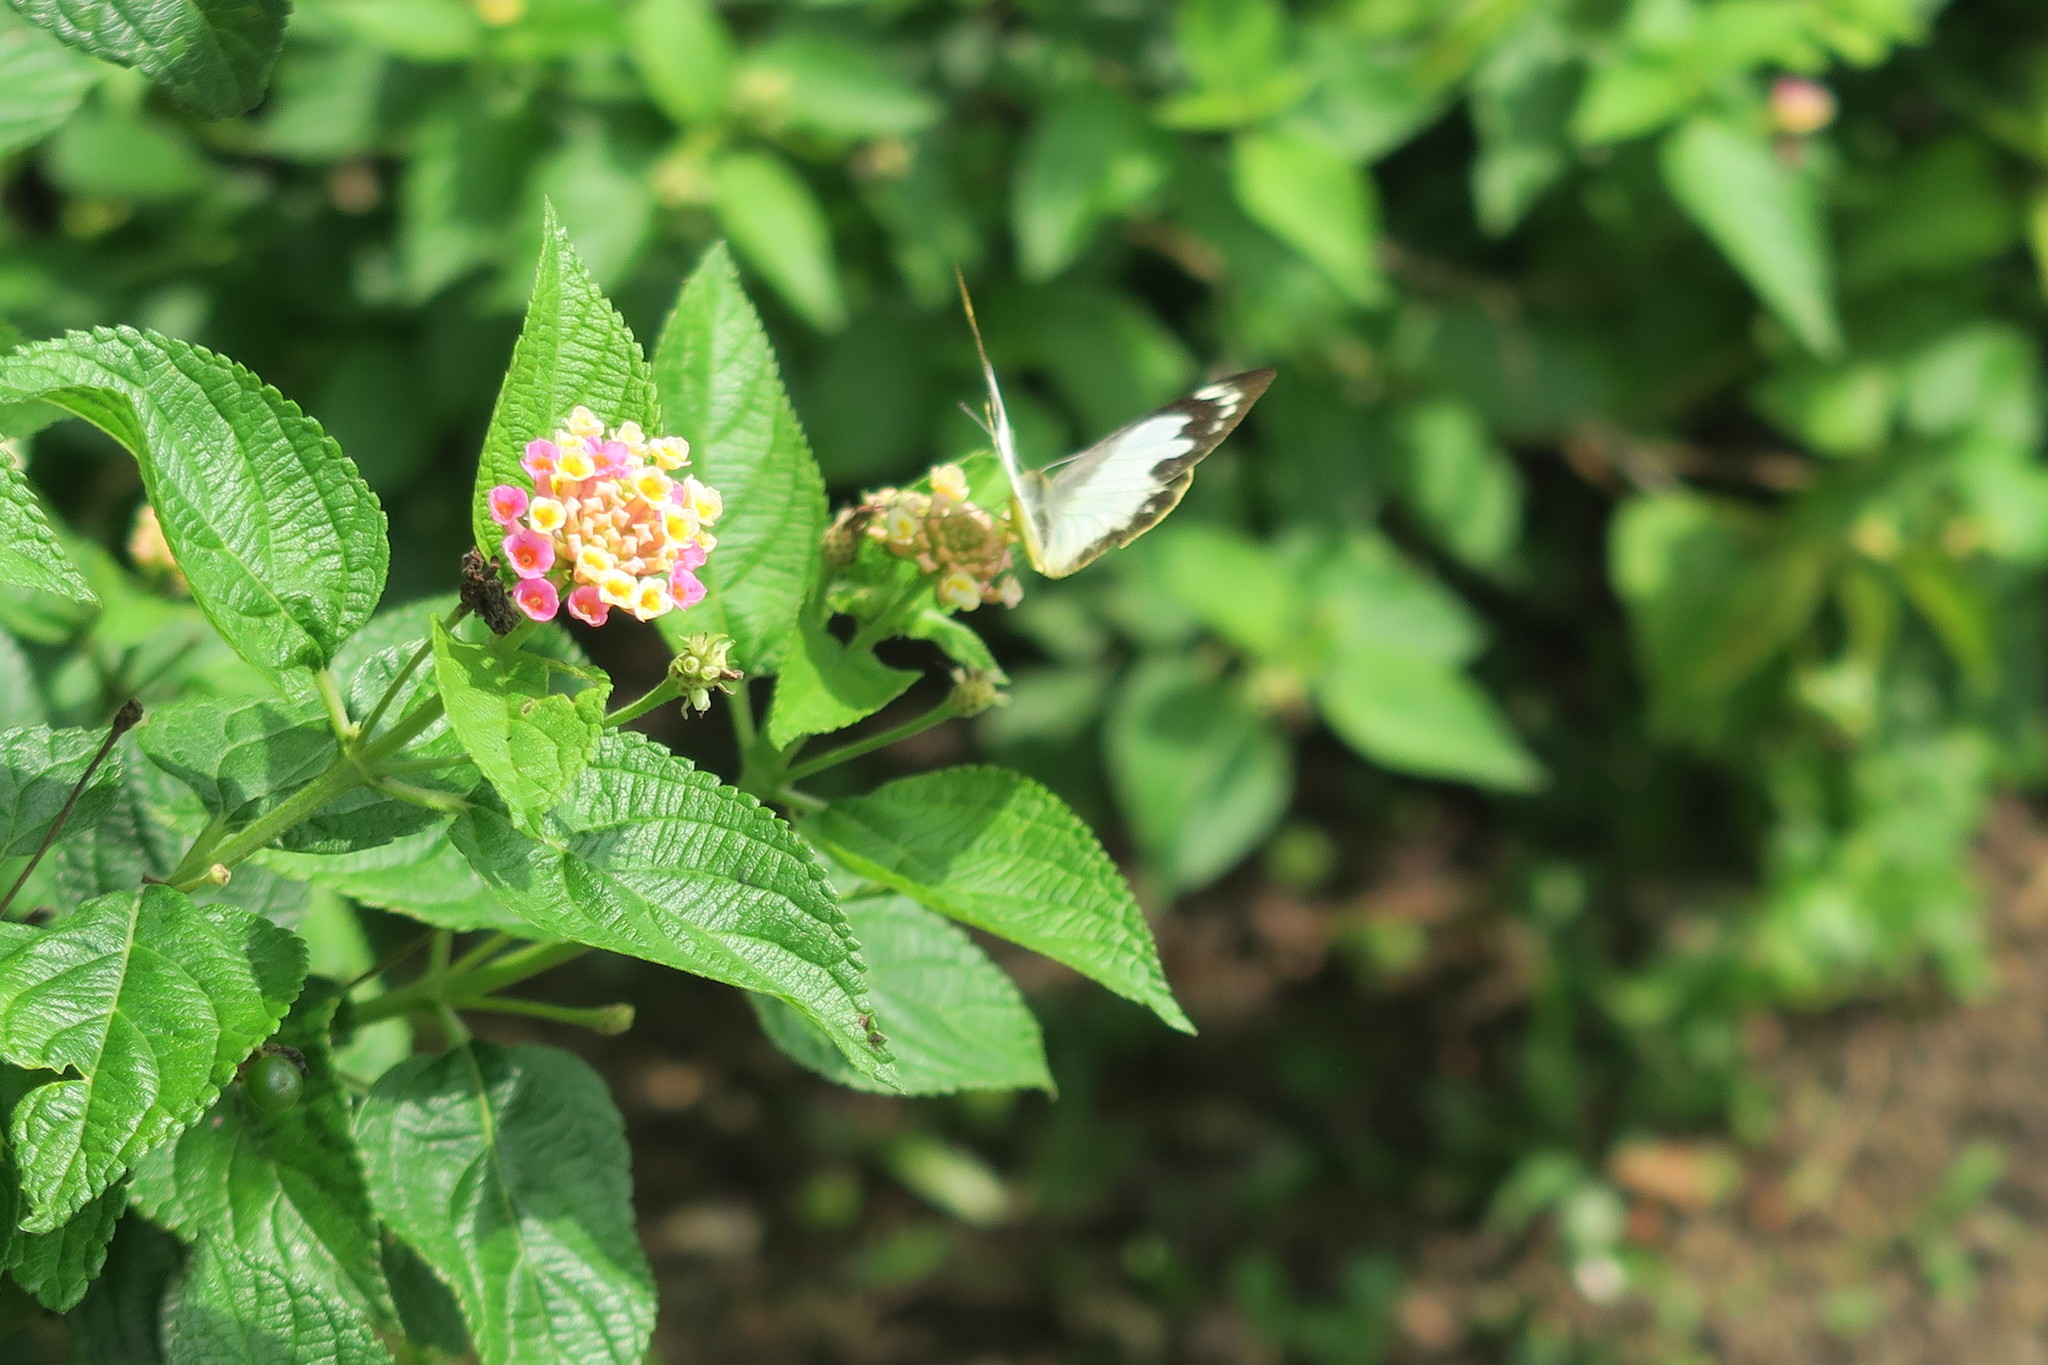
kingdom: Animalia
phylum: Arthropoda
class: Insecta
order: Lepidoptera
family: Pieridae
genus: Appias
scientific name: Appias paulina
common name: Ceylon lesser albatross
